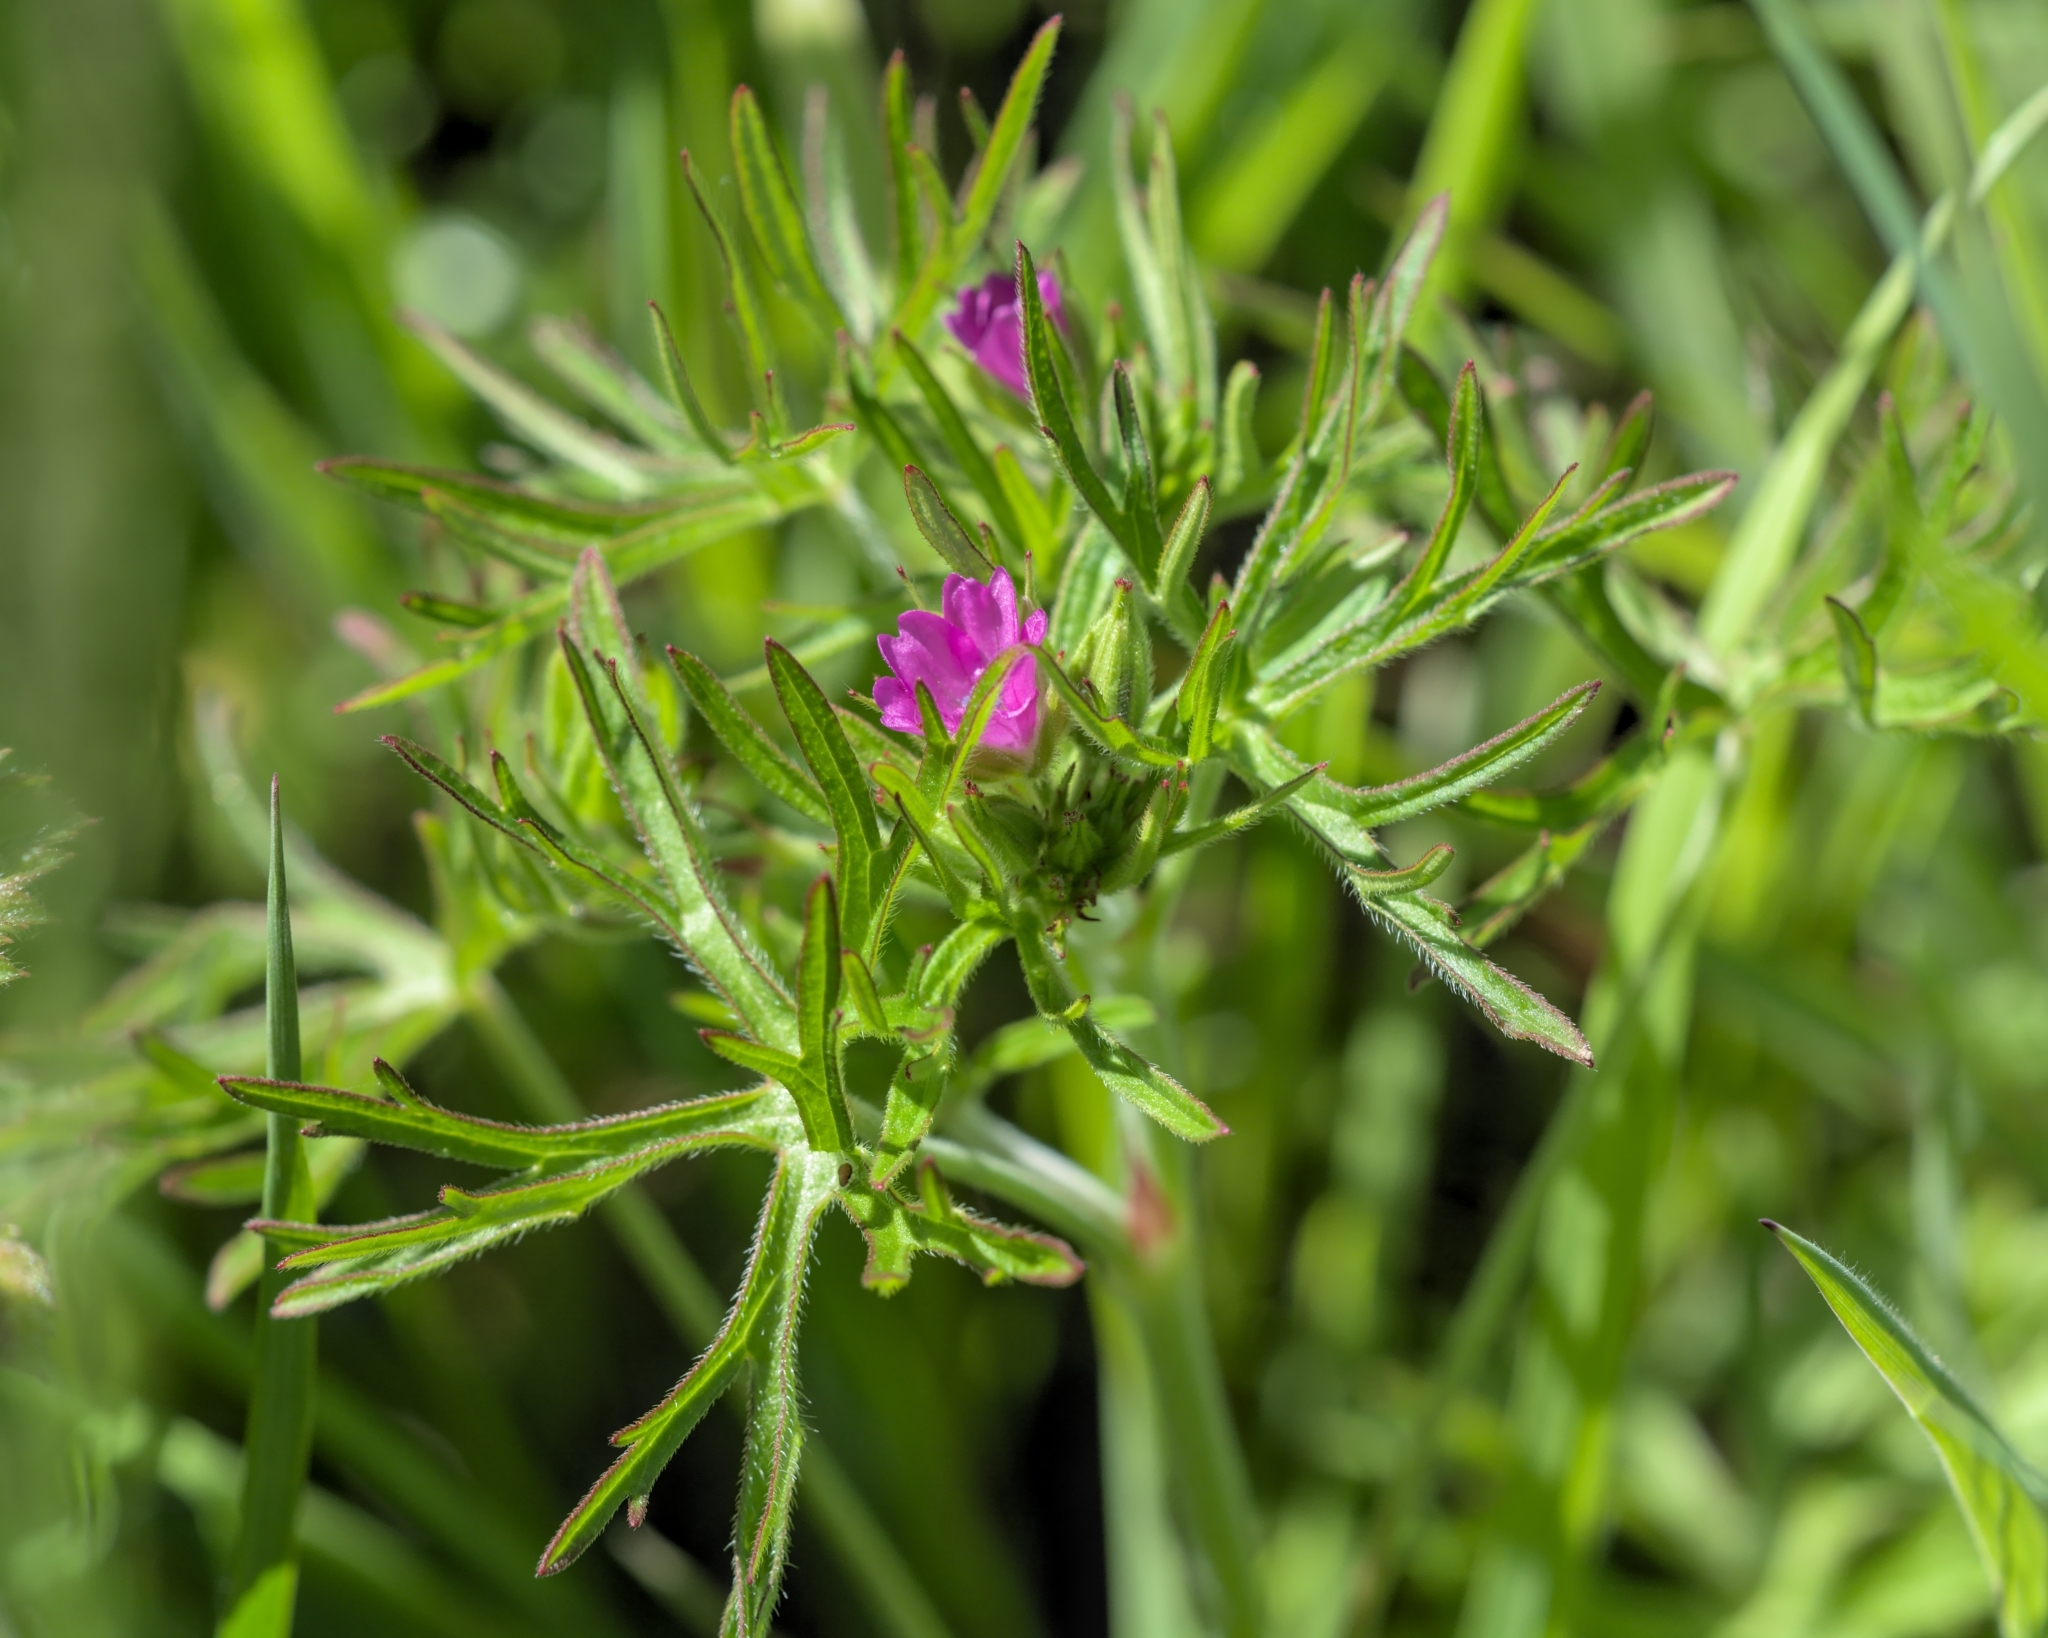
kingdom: Plantae
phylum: Tracheophyta
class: Magnoliopsida
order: Geraniales
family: Geraniaceae
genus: Geranium
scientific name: Geranium dissectum
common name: Cut-leaved crane's-bill
